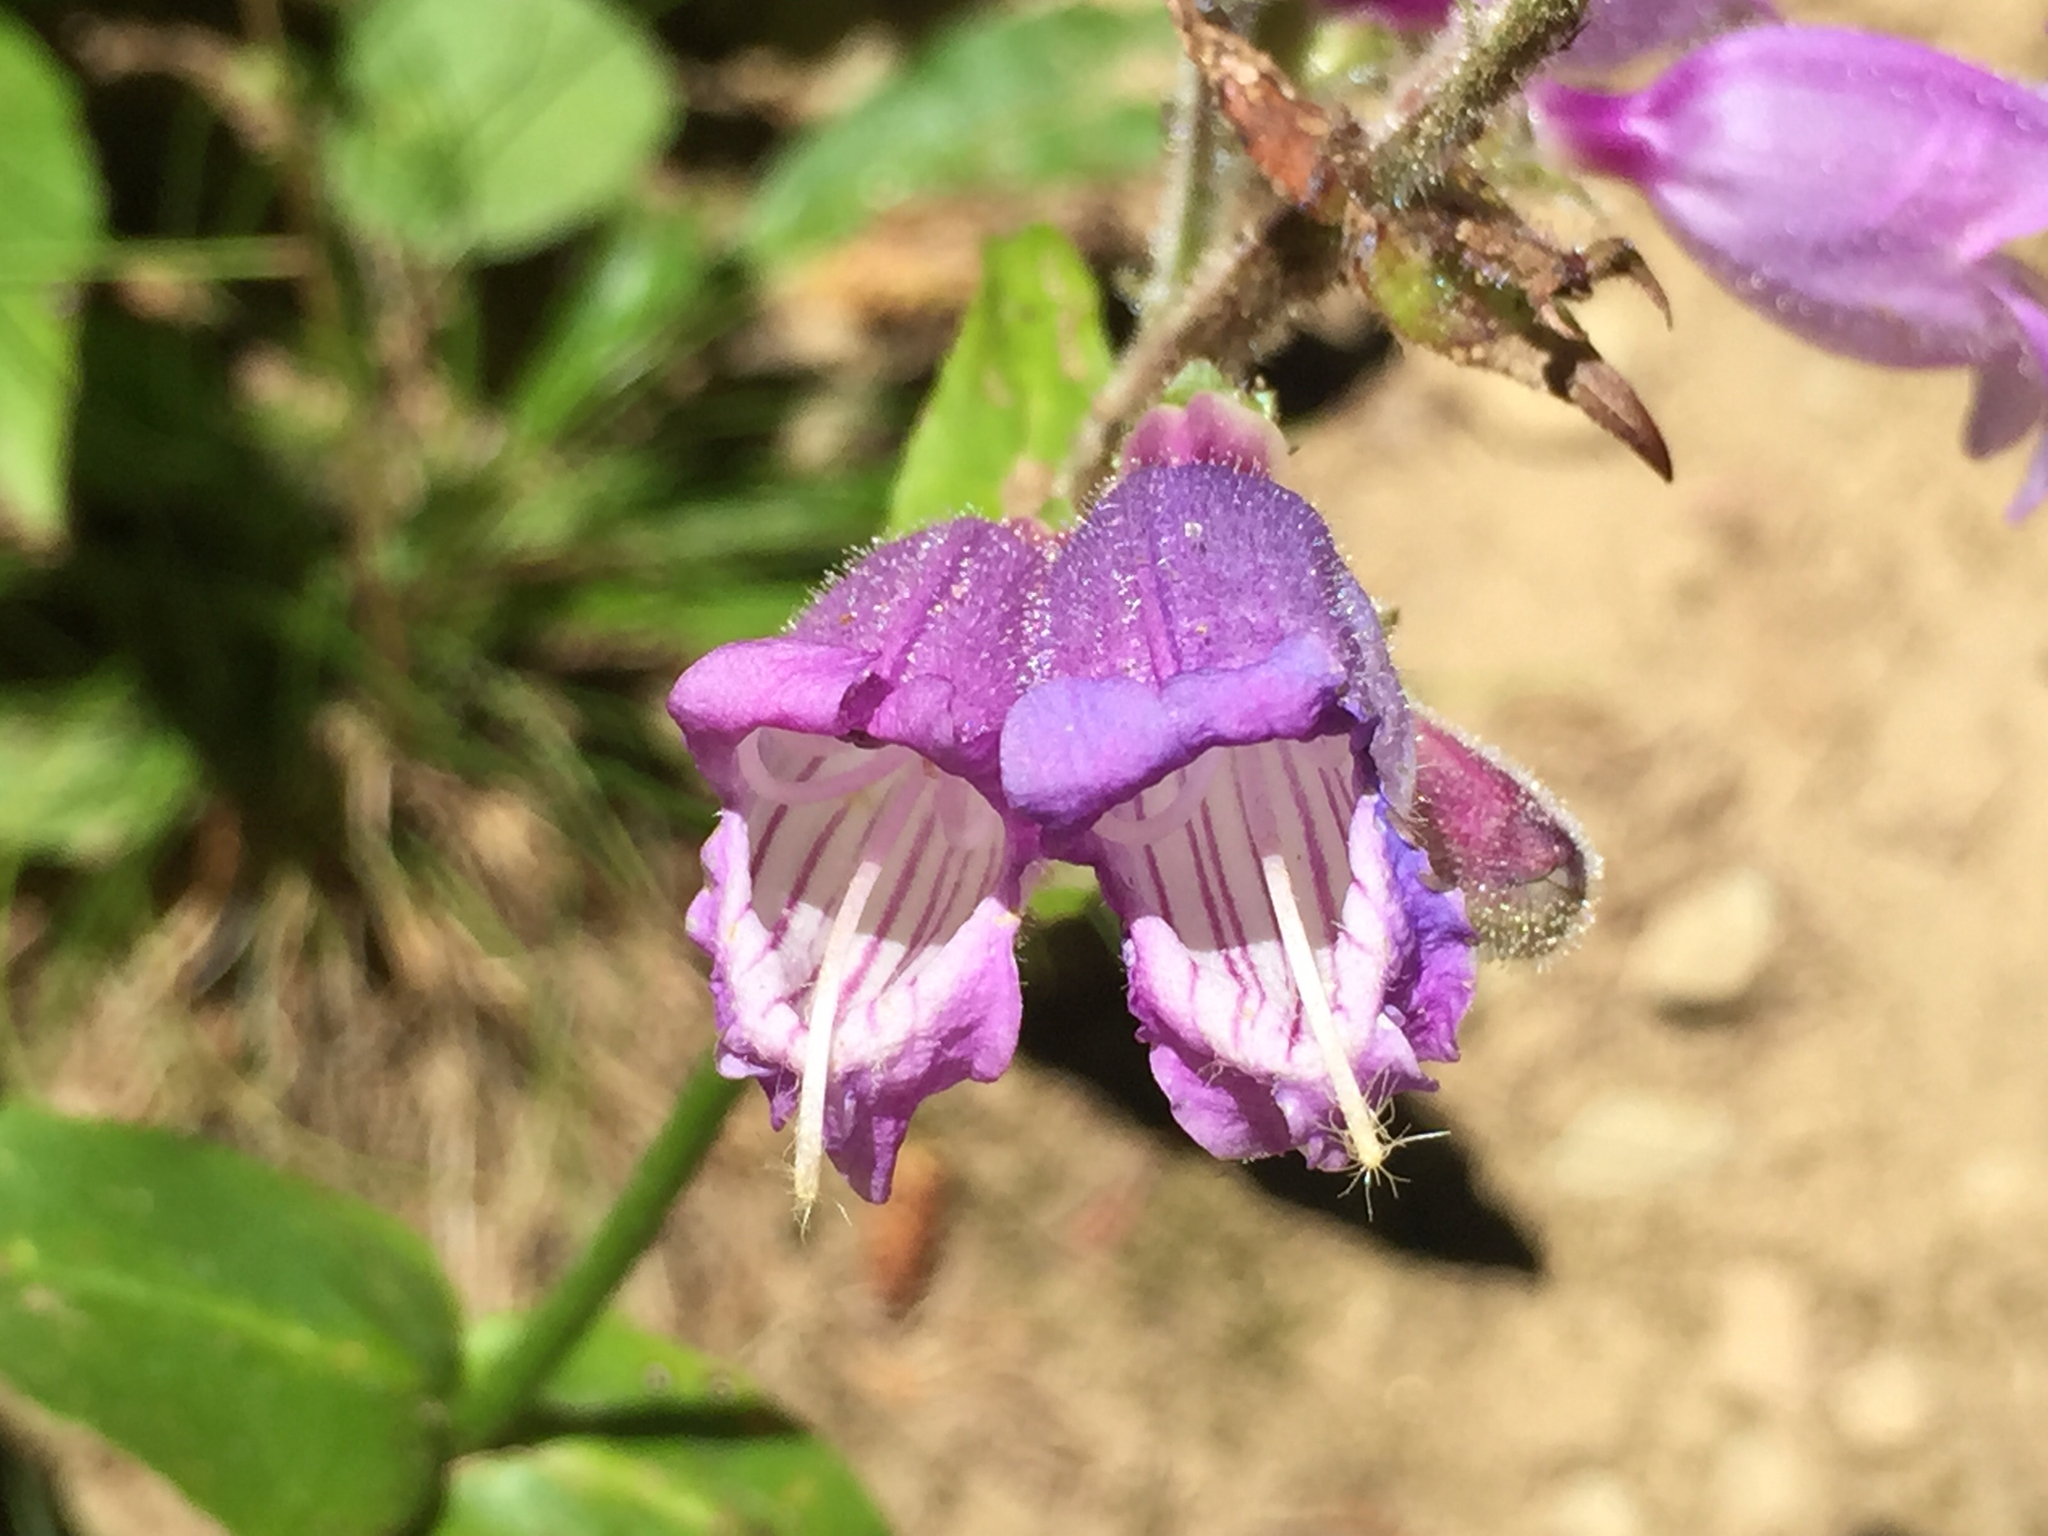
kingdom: Plantae
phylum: Tracheophyta
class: Magnoliopsida
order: Lamiales
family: Plantaginaceae
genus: Penstemon
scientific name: Penstemon rattanii
